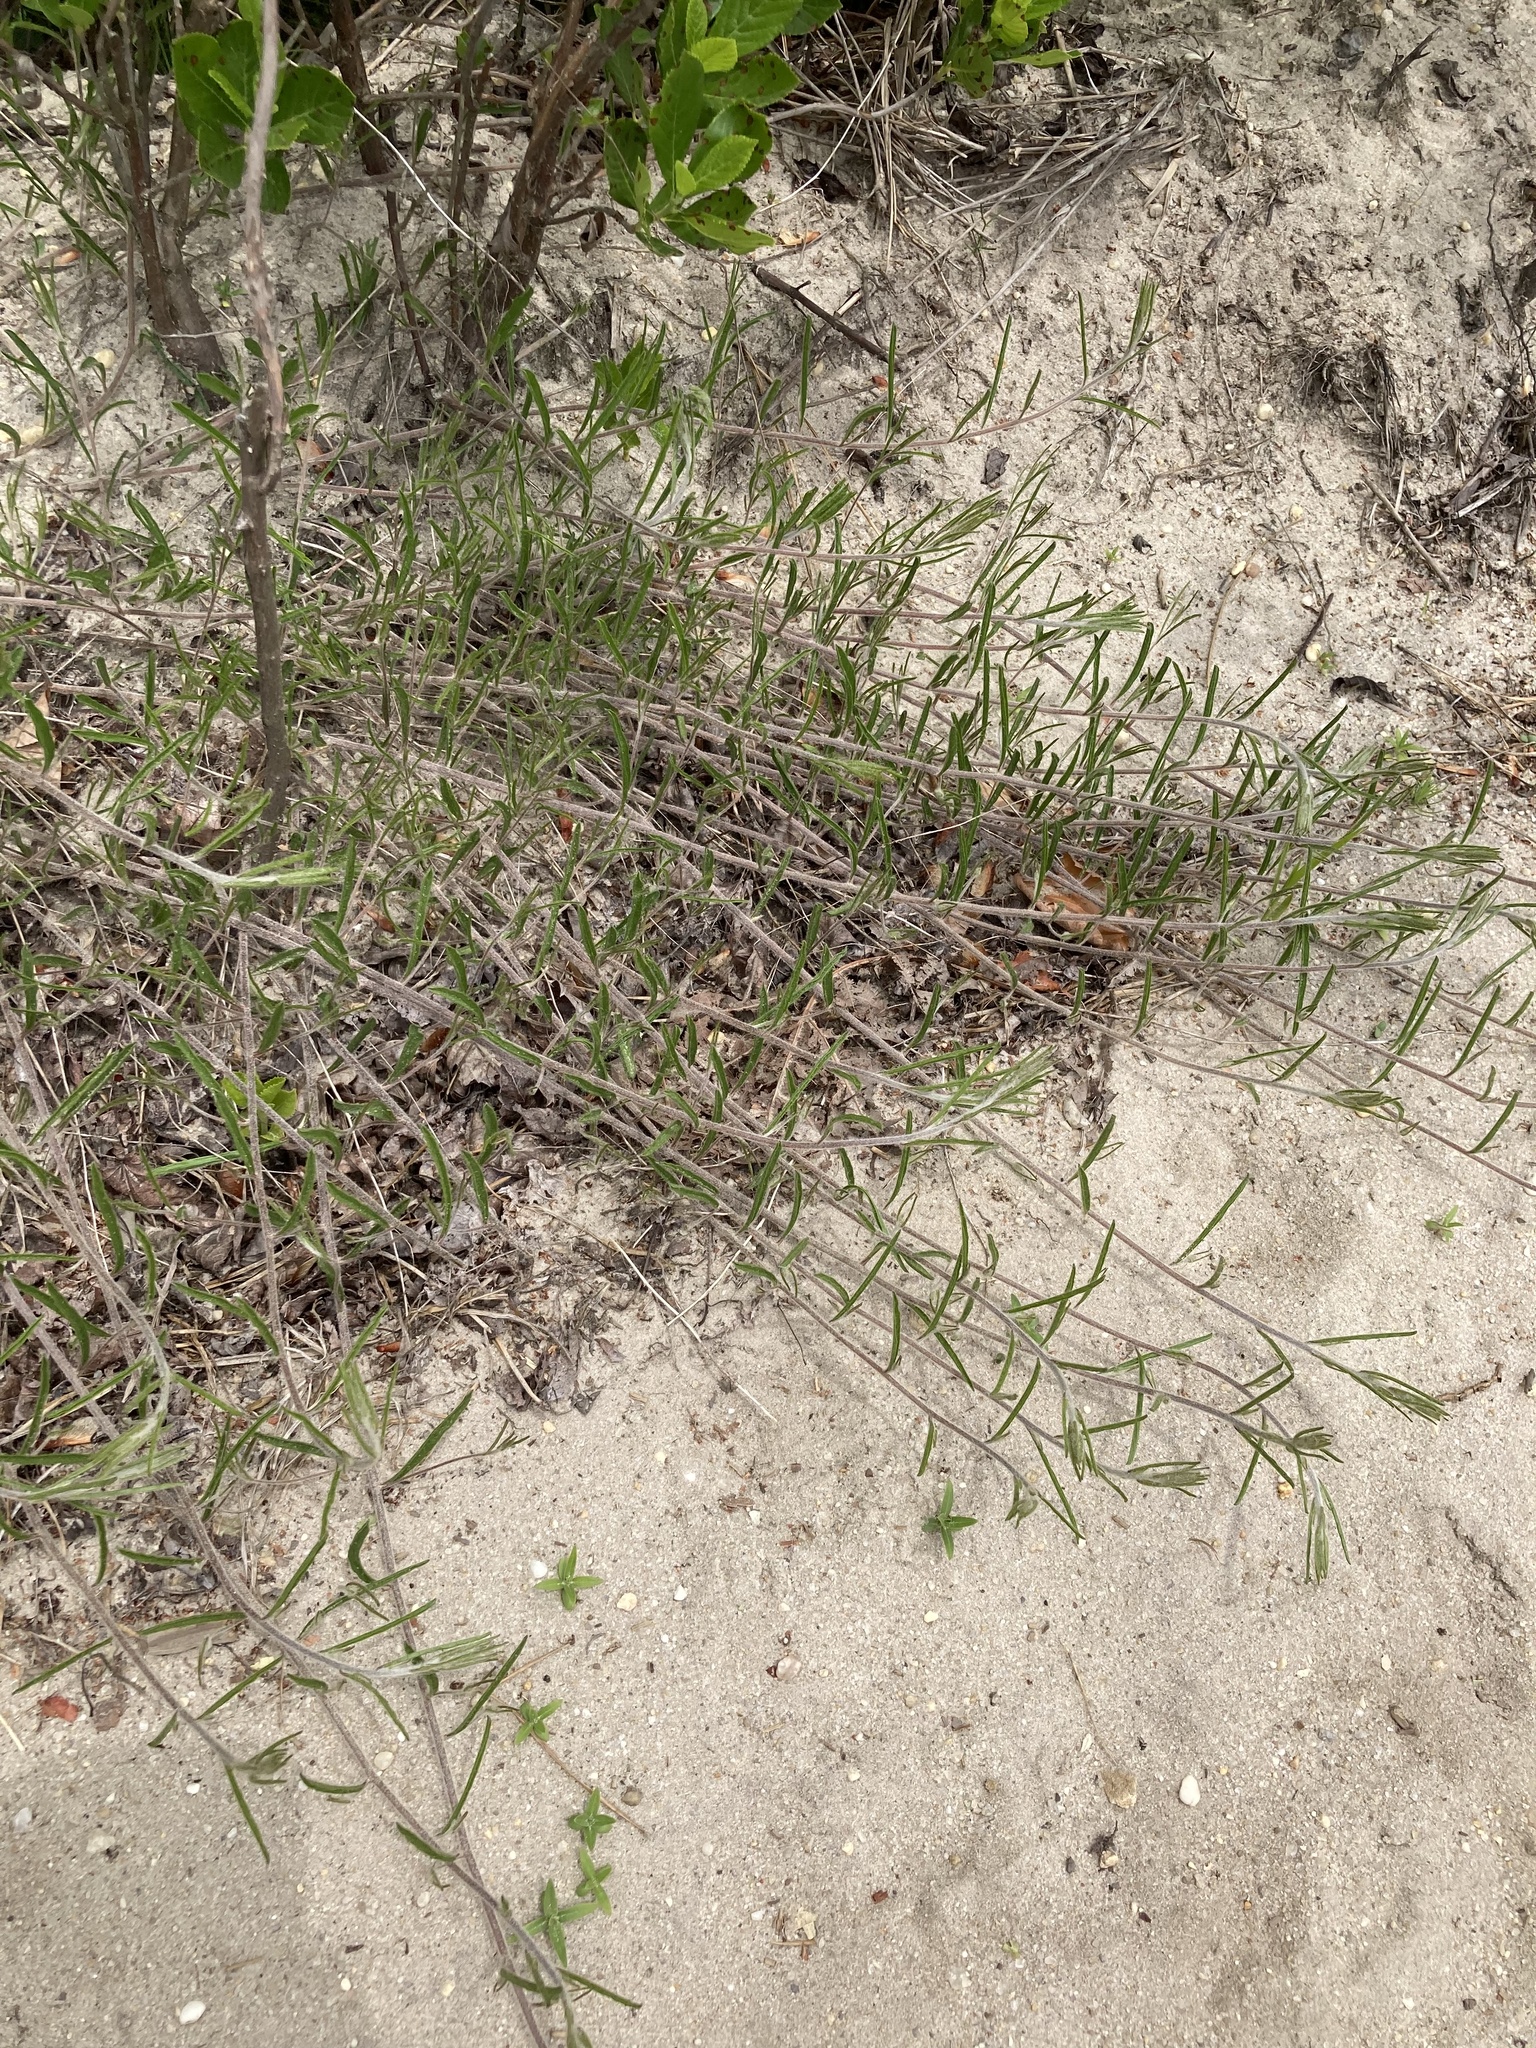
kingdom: Plantae
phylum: Tracheophyta
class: Magnoliopsida
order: Solanales
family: Convolvulaceae
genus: Stylisma
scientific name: Stylisma pickeringii
